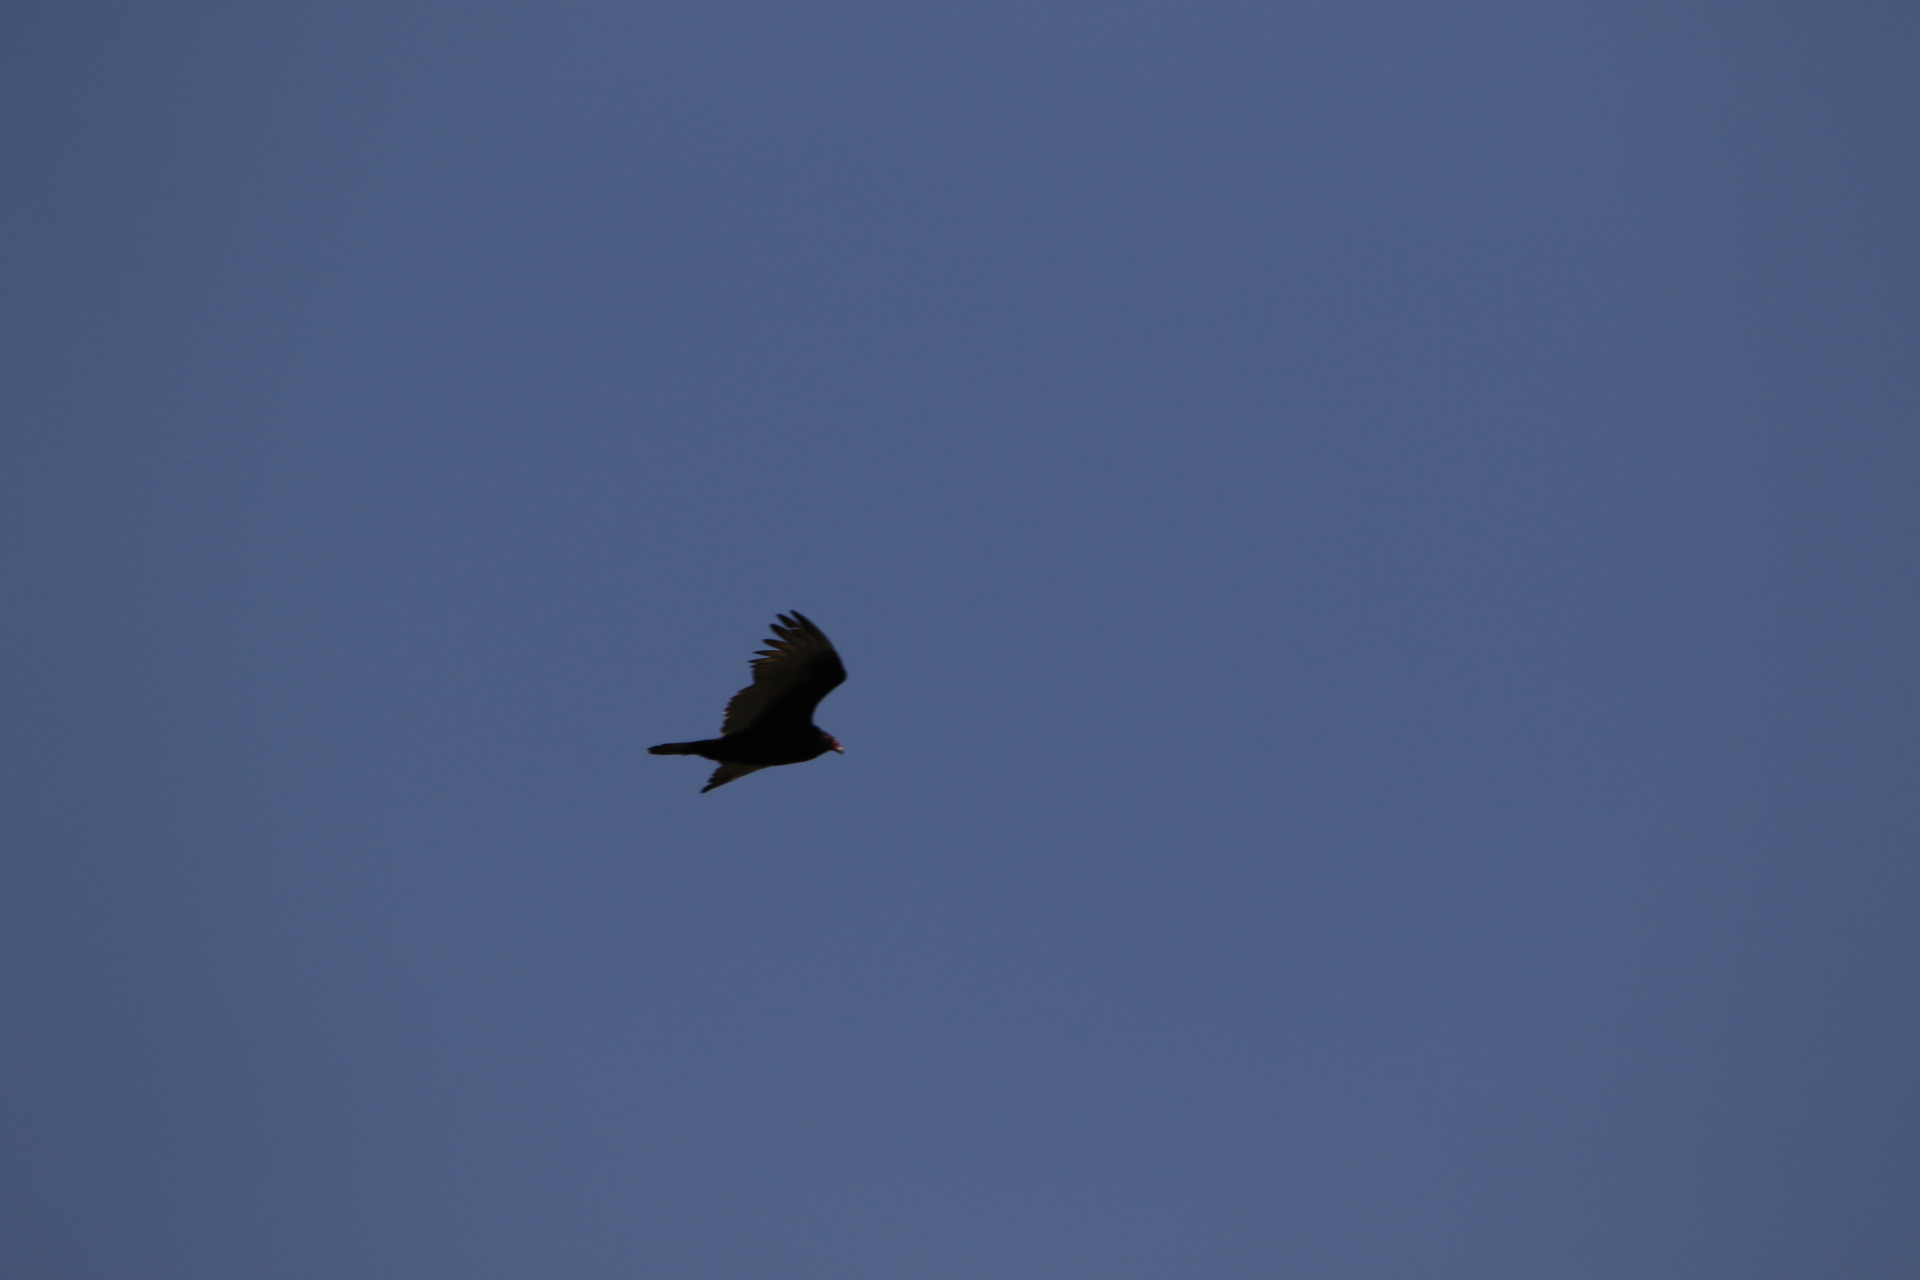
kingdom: Animalia
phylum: Chordata
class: Aves
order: Accipitriformes
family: Cathartidae
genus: Cathartes
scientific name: Cathartes aura
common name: Turkey vulture
